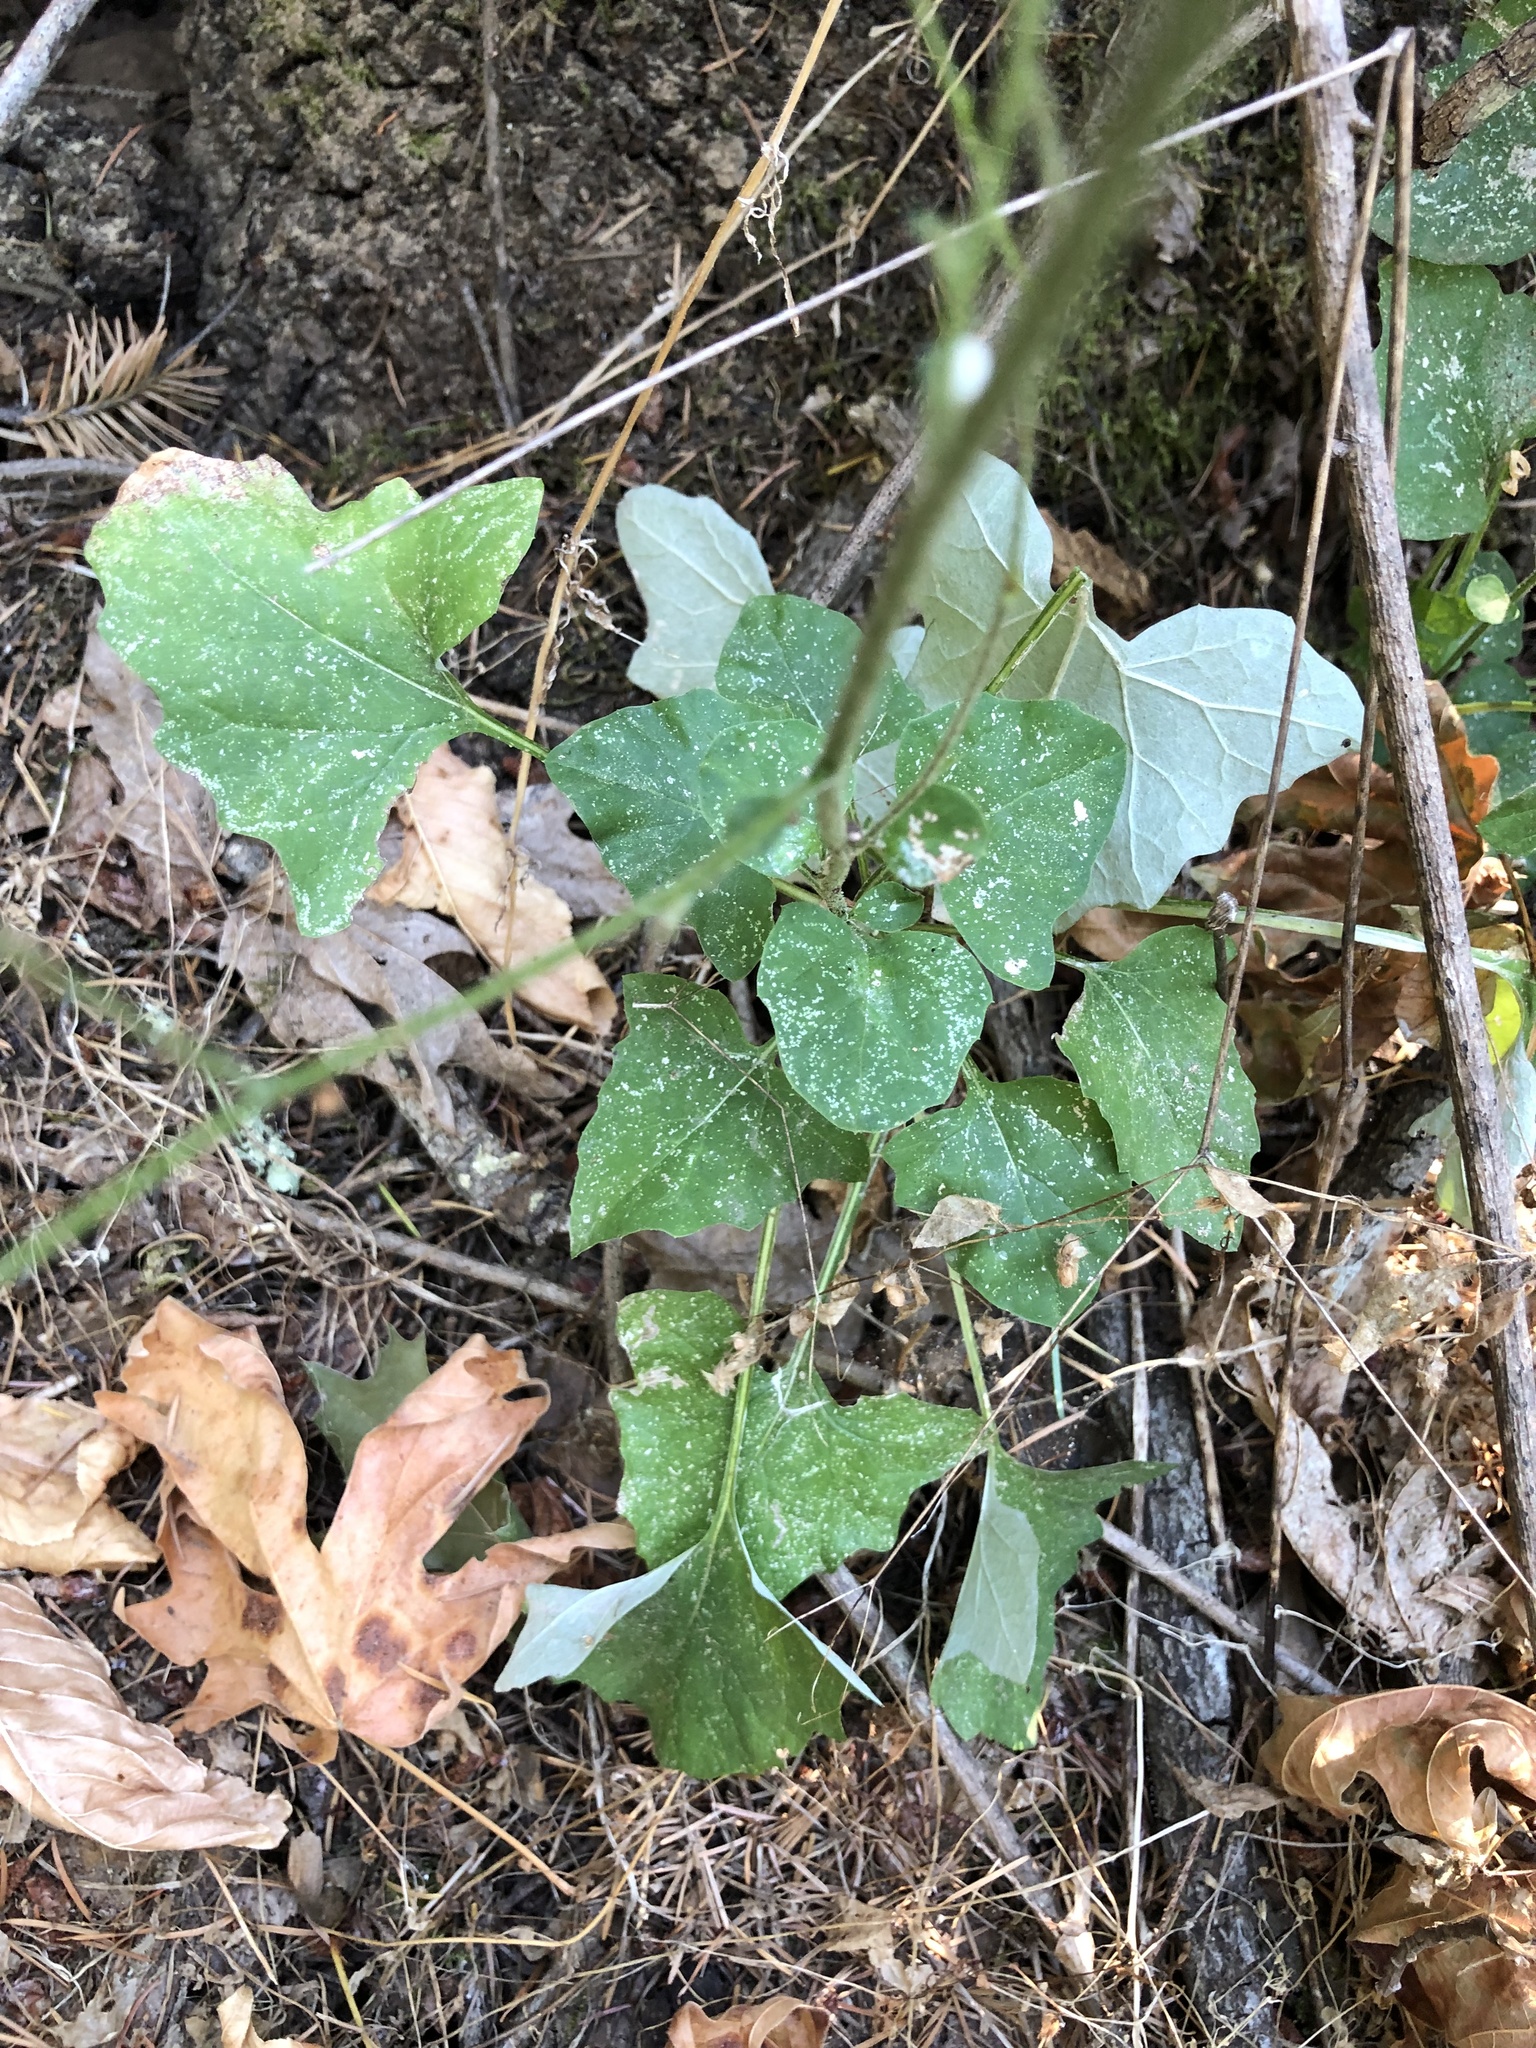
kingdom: Plantae
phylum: Tracheophyta
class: Magnoliopsida
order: Asterales
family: Asteraceae
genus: Adenocaulon
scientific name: Adenocaulon bicolor
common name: Trailplant
